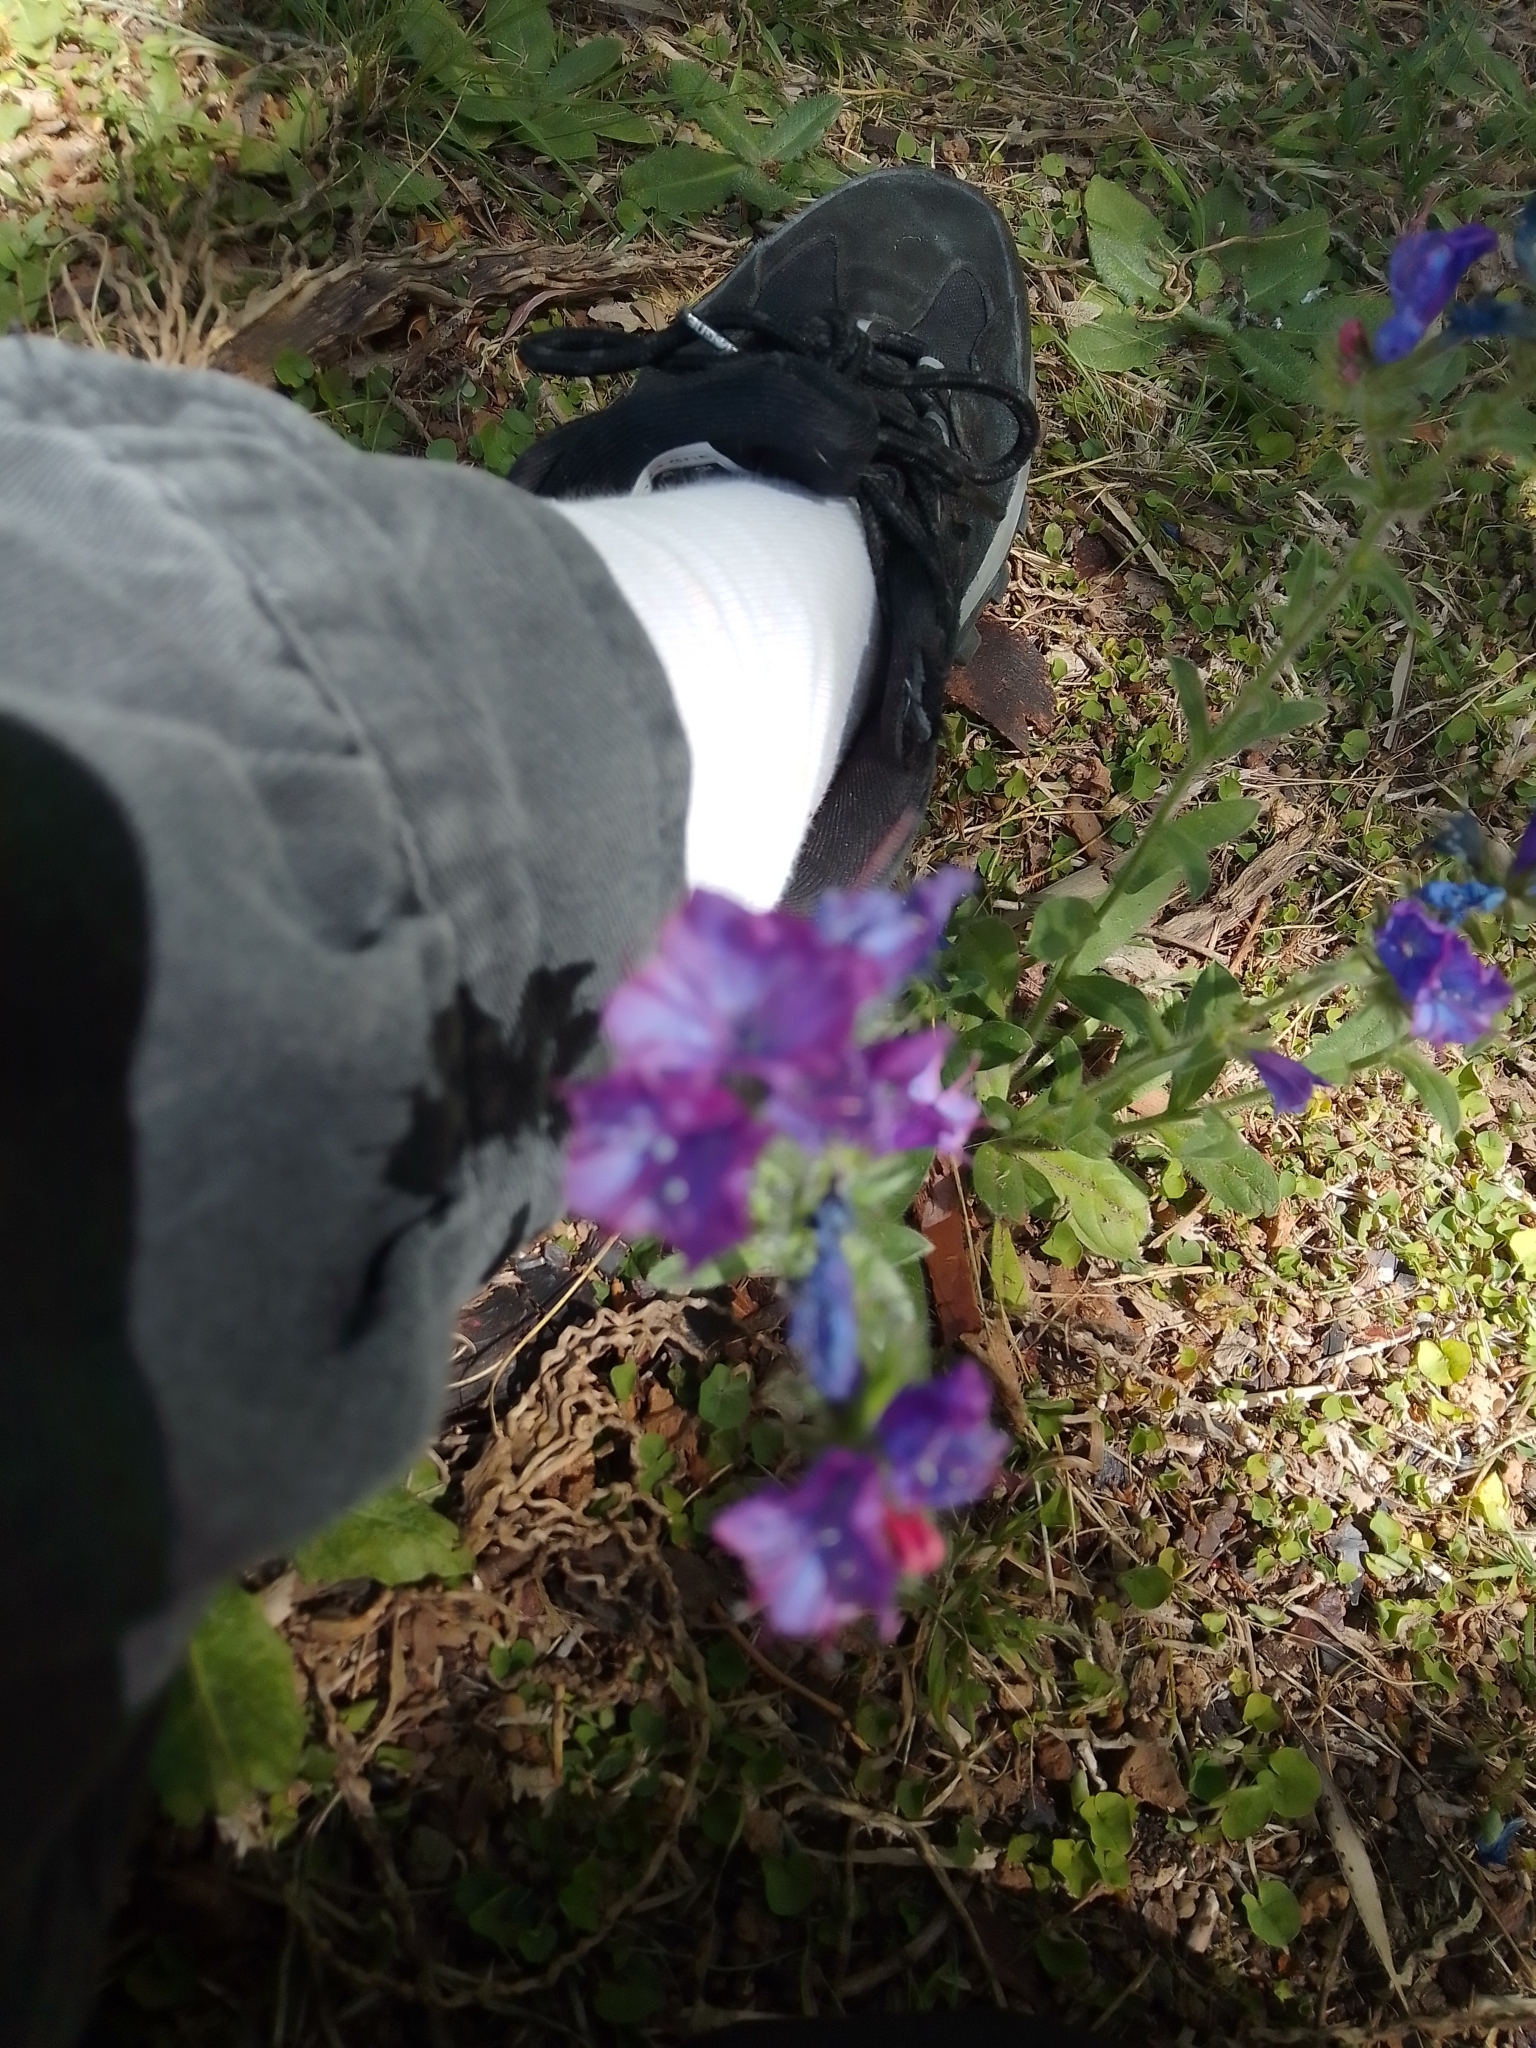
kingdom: Plantae
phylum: Tracheophyta
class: Magnoliopsida
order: Boraginales
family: Boraginaceae
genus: Echium
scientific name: Echium plantagineum
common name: Purple viper's-bugloss
